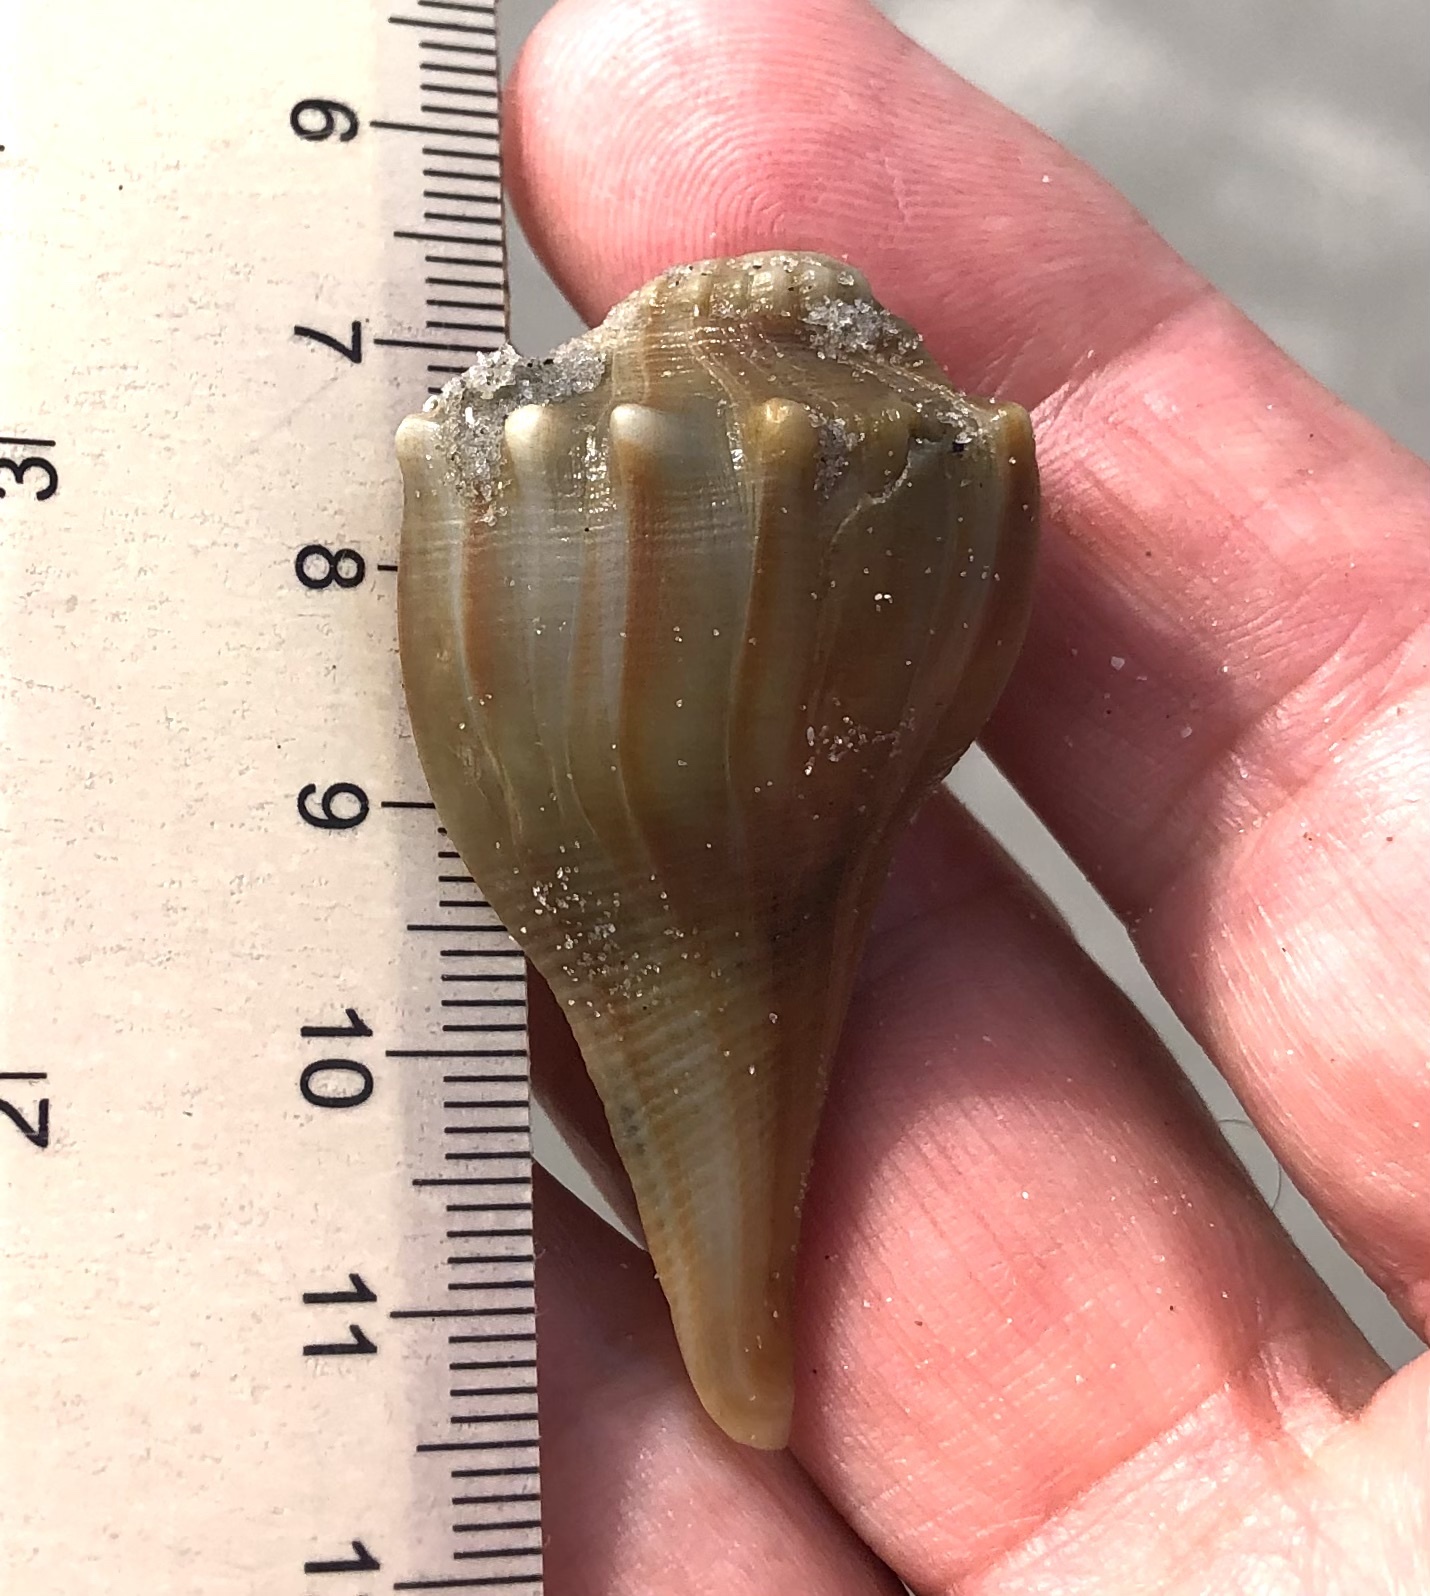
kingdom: Animalia
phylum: Mollusca
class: Gastropoda
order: Neogastropoda
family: Busyconidae
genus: Busycon
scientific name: Busycon carica
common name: Knobbed whelk
